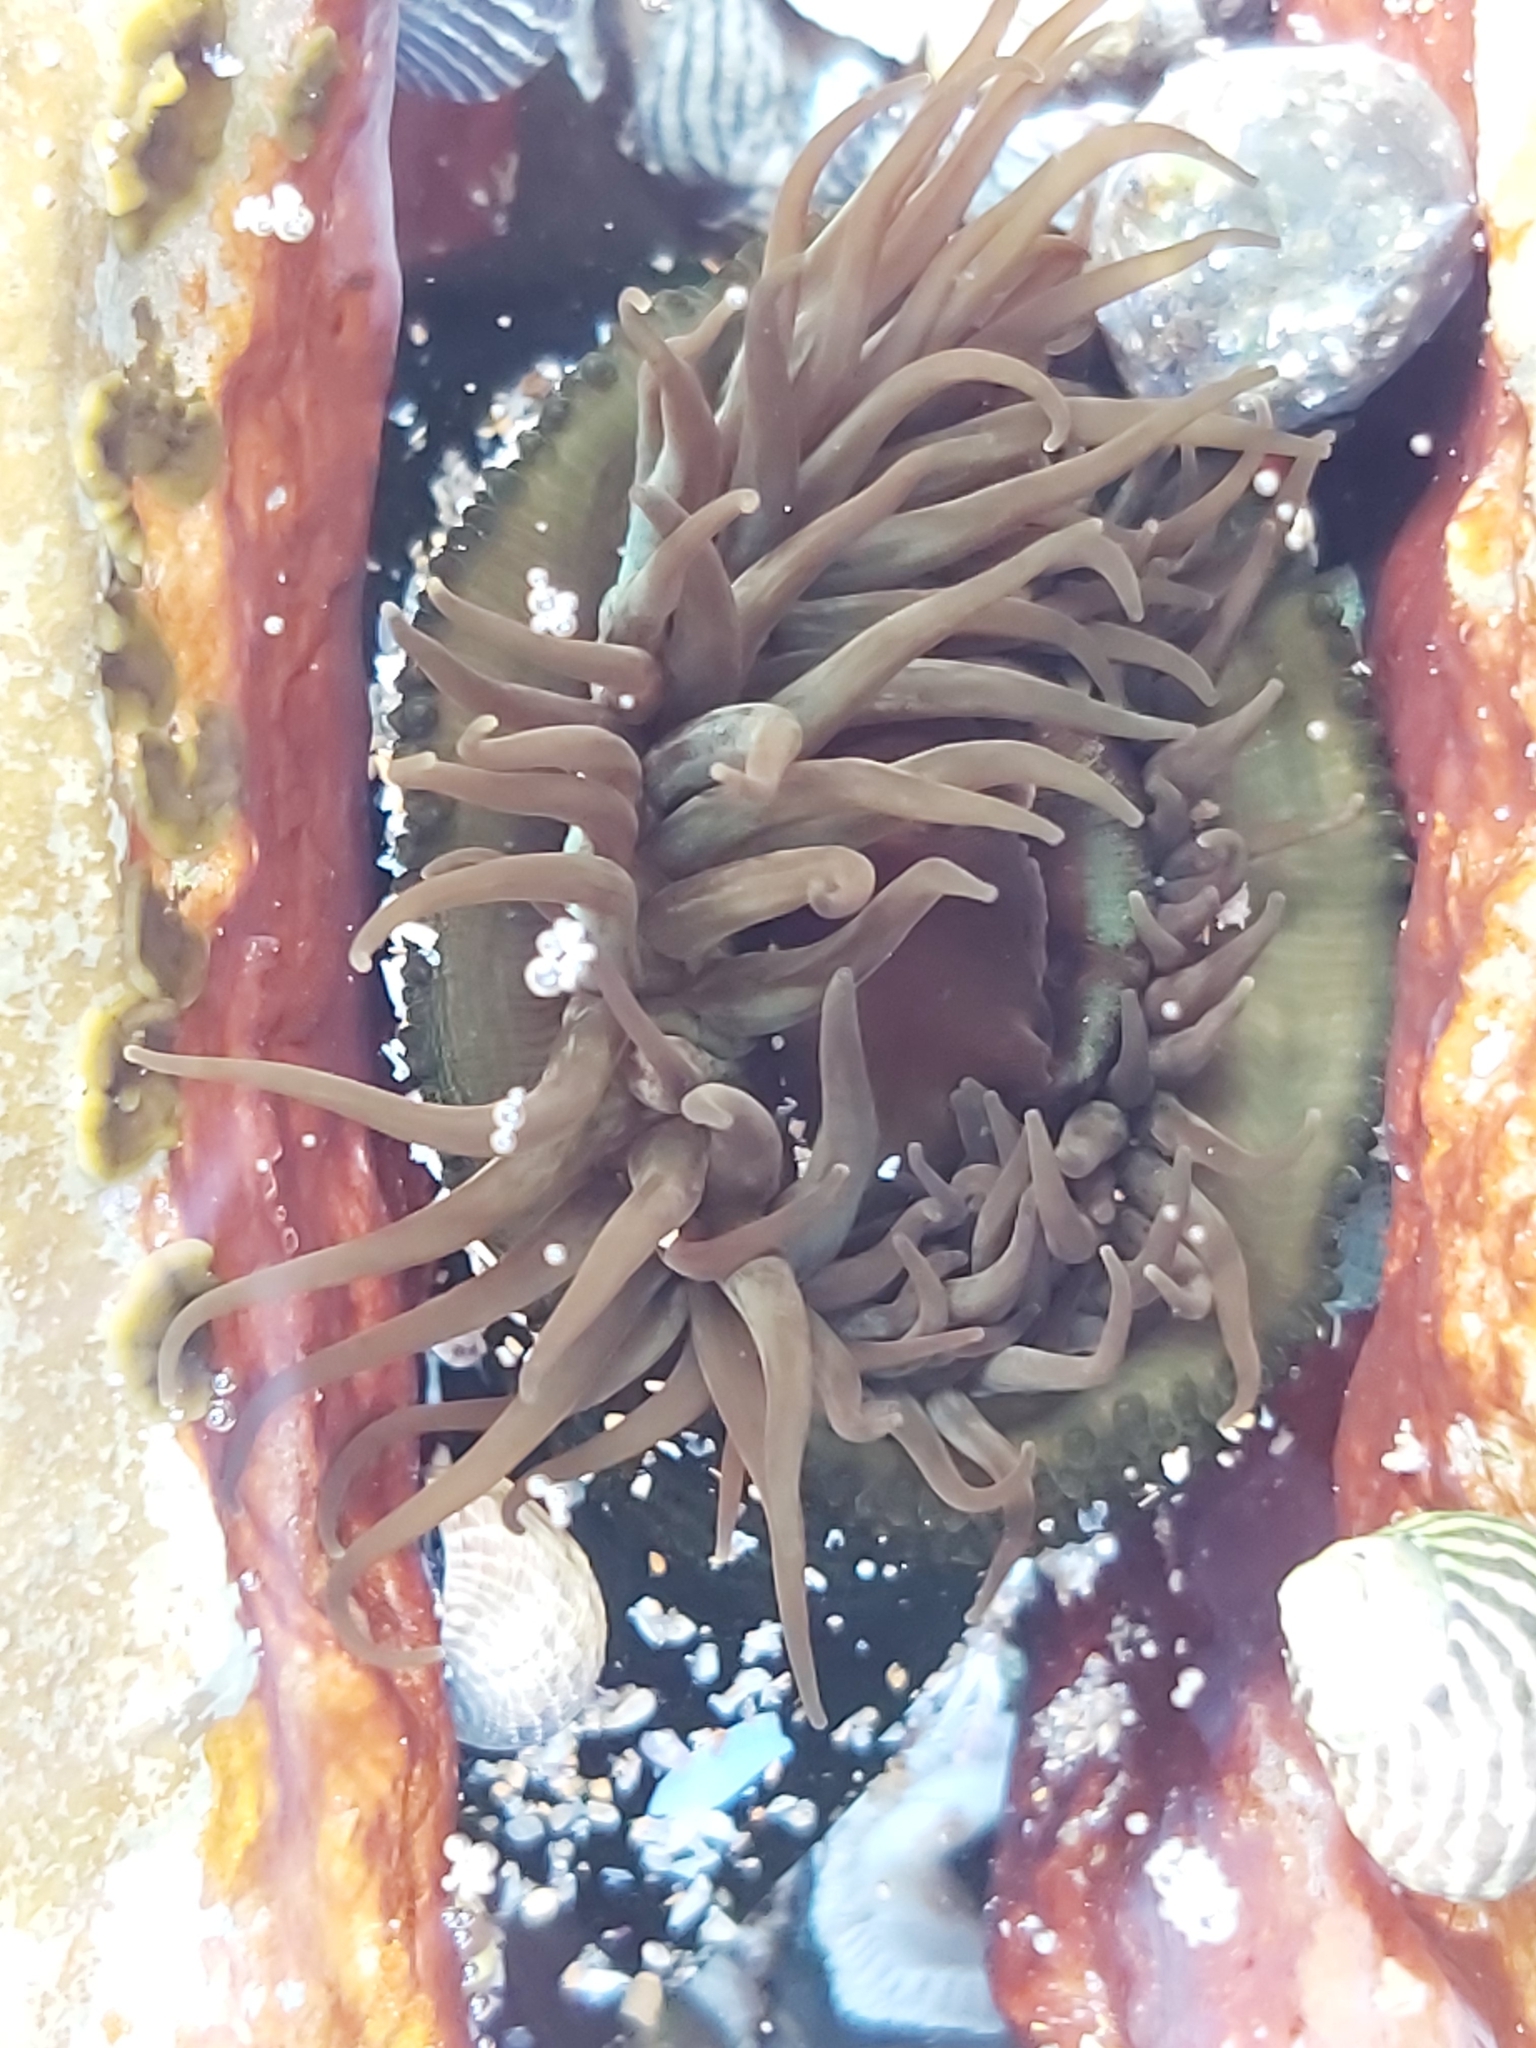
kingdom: Animalia
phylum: Cnidaria
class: Anthozoa
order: Actiniaria
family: Actiniidae
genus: Aulactinia
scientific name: Aulactinia veratra
